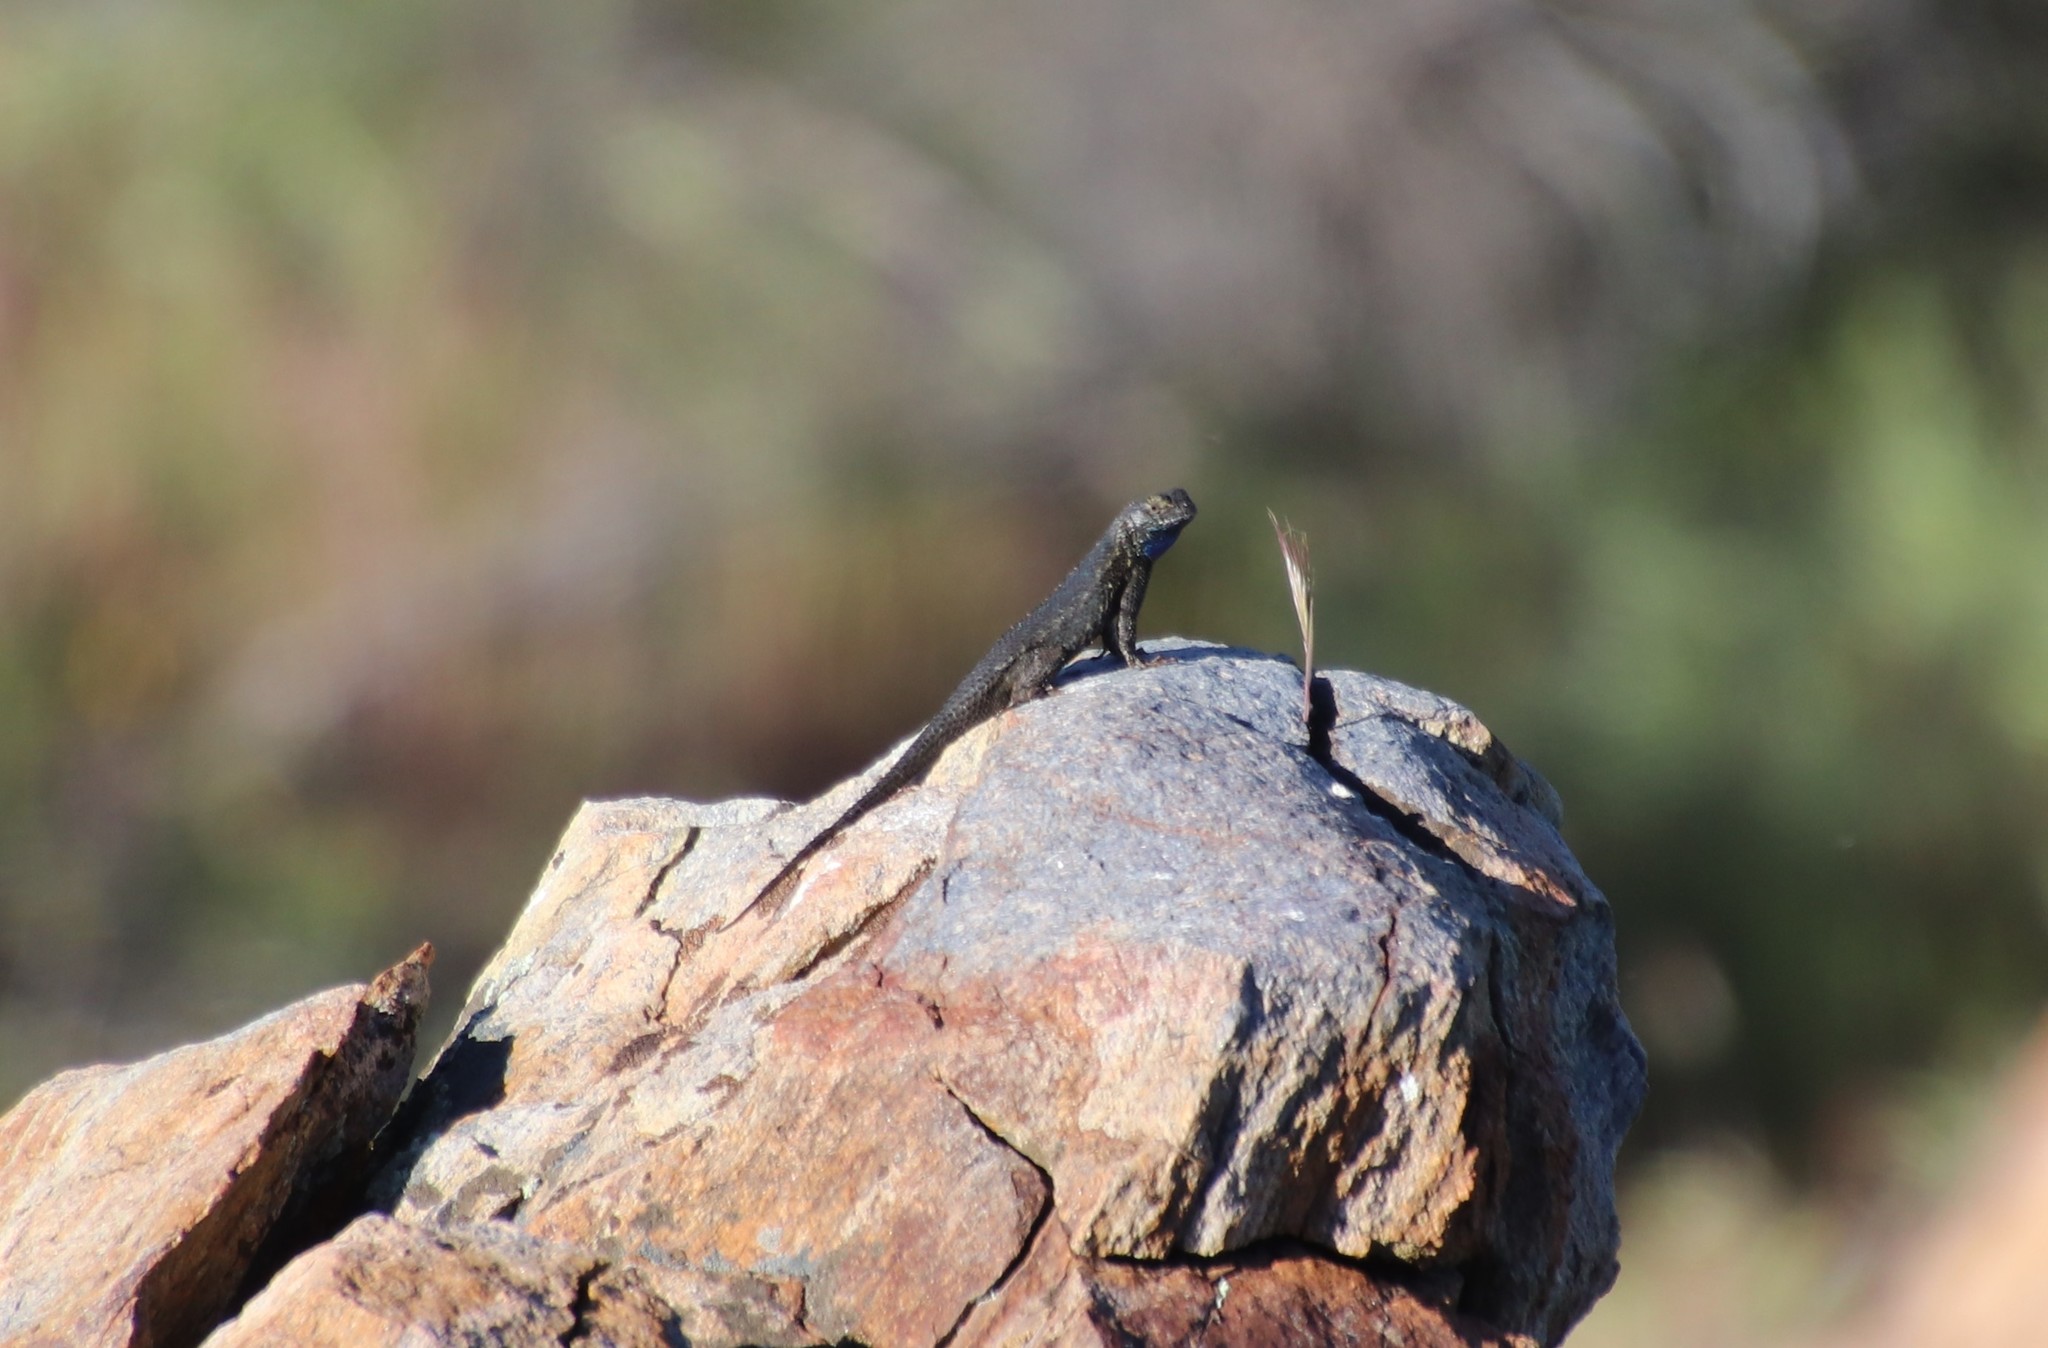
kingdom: Animalia
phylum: Chordata
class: Squamata
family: Phrynosomatidae
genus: Sceloporus
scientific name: Sceloporus occidentalis
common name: Western fence lizard
